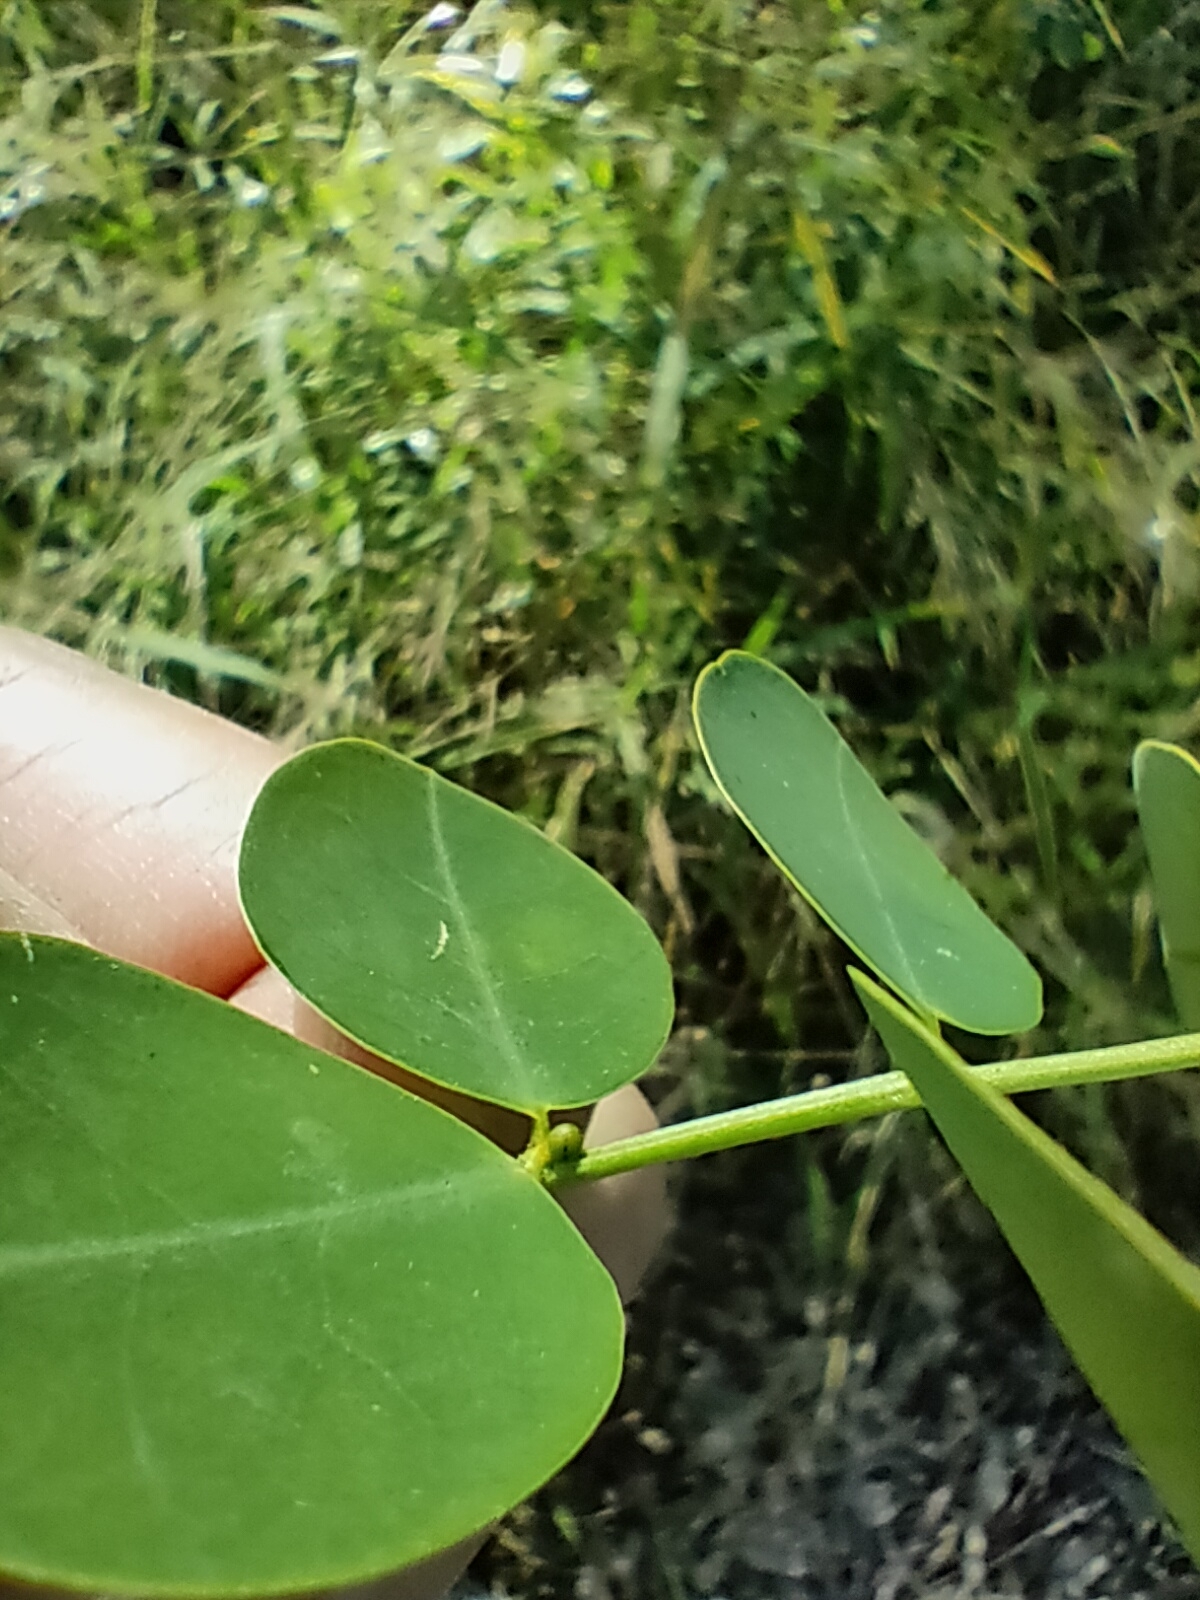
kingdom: Plantae
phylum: Tracheophyta
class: Magnoliopsida
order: Fabales
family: Fabaceae
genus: Senna
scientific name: Senna pendula
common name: Easter cassia
